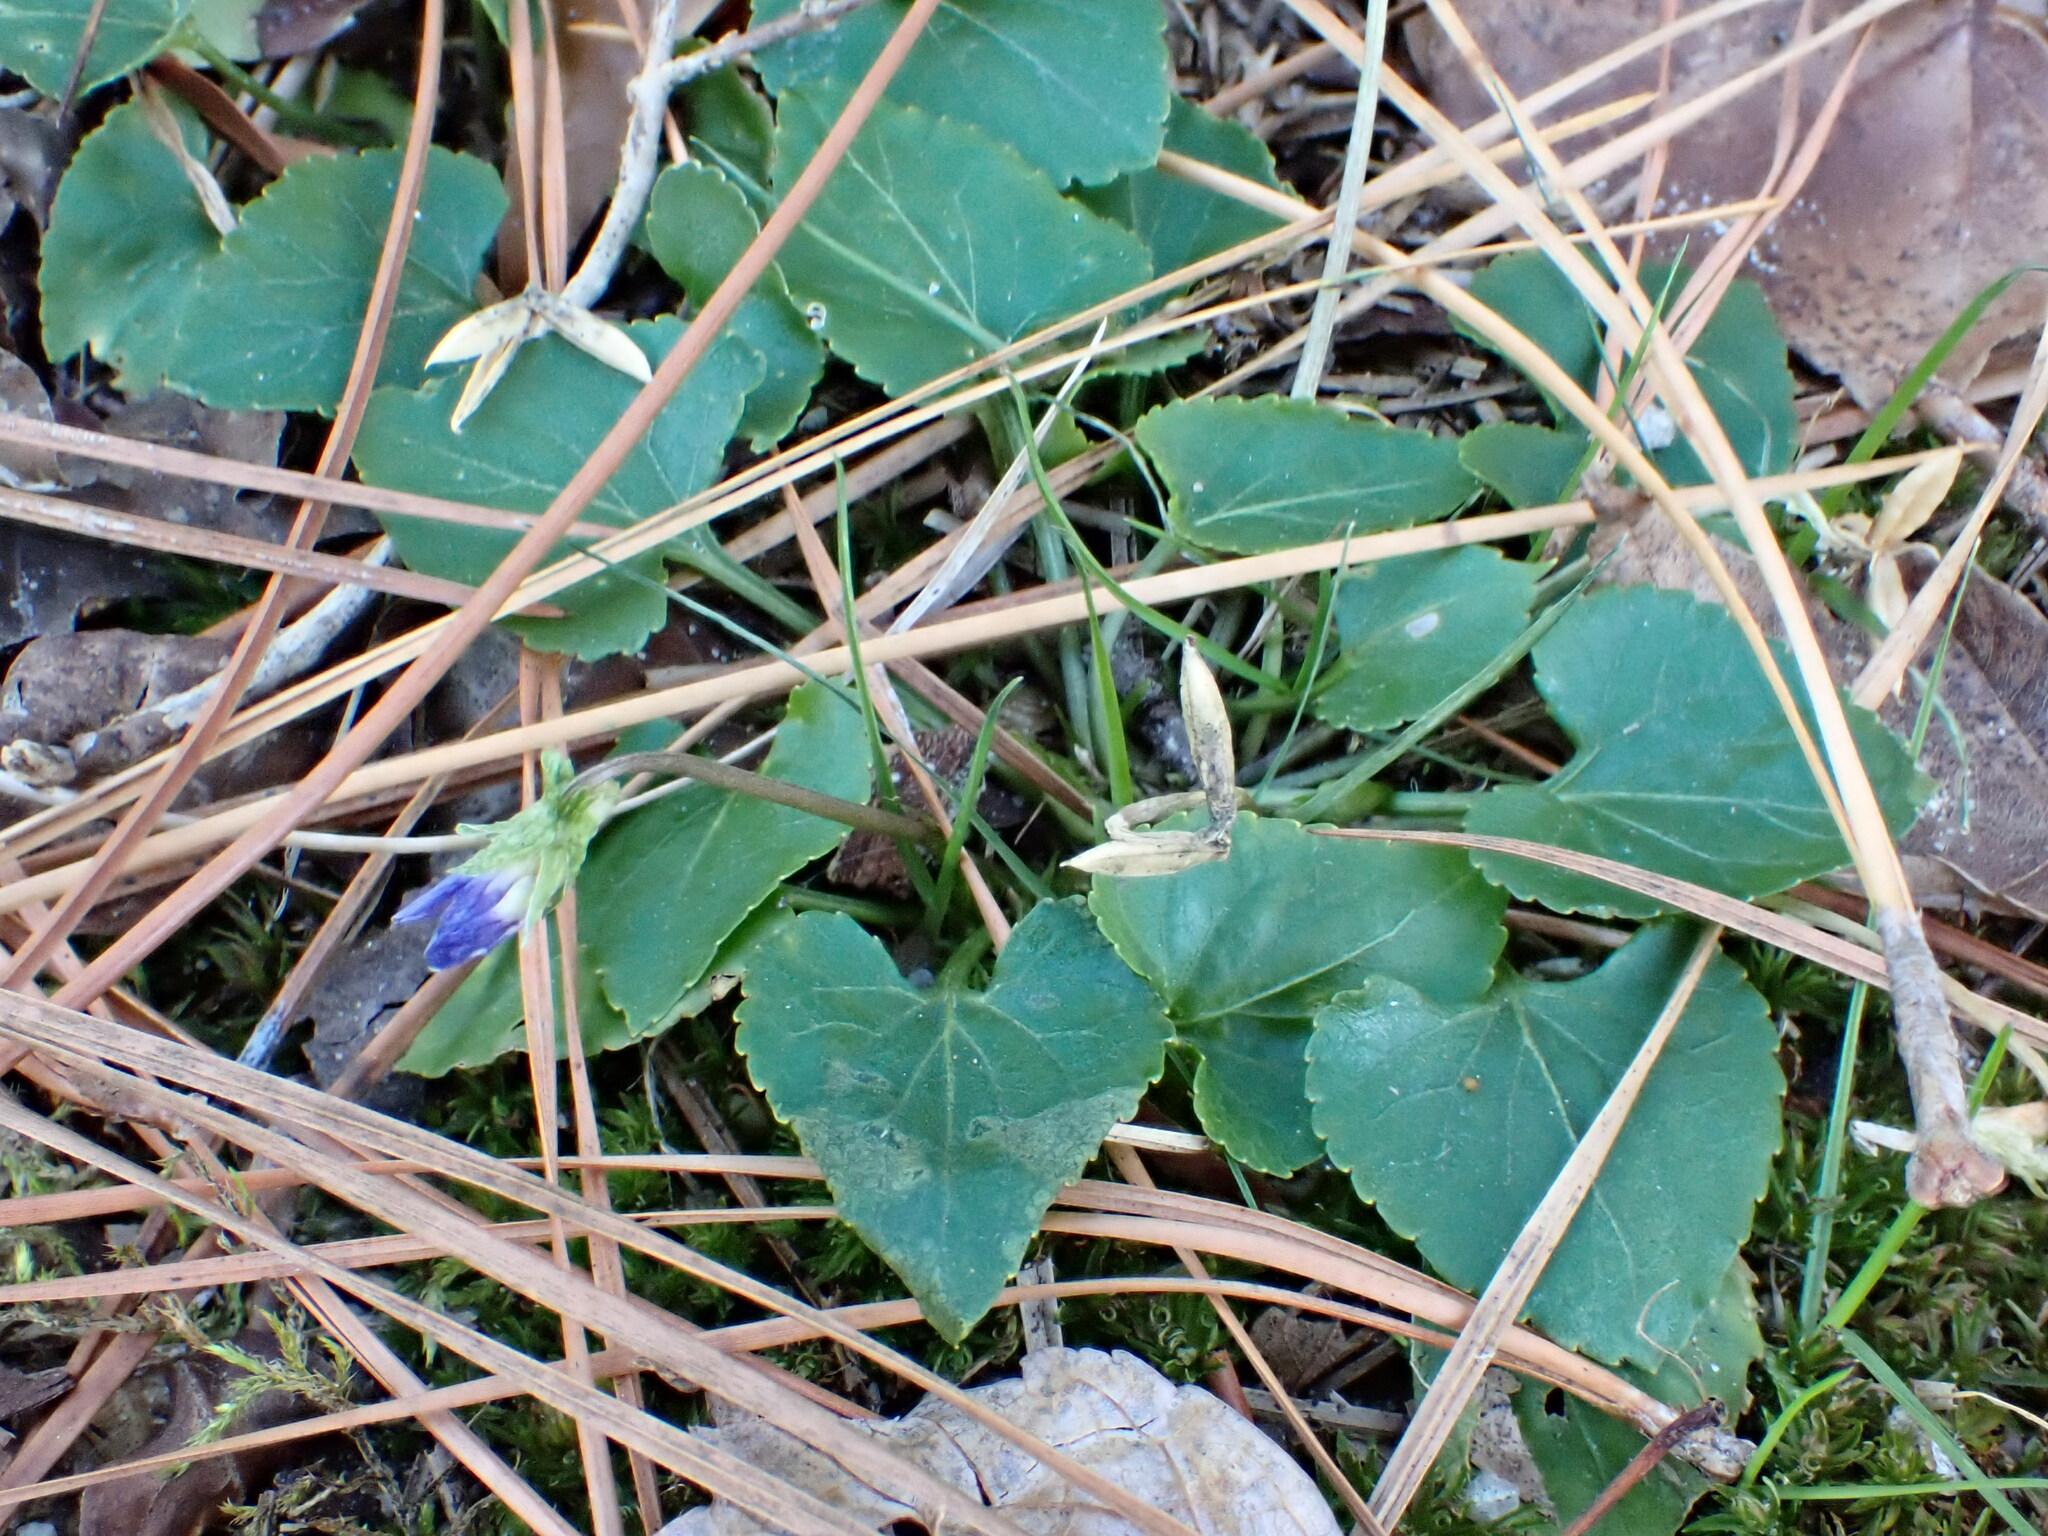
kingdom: Plantae
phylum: Tracheophyta
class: Magnoliopsida
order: Malpighiales
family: Violaceae
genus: Viola
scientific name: Viola sororia
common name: Dooryard violet
